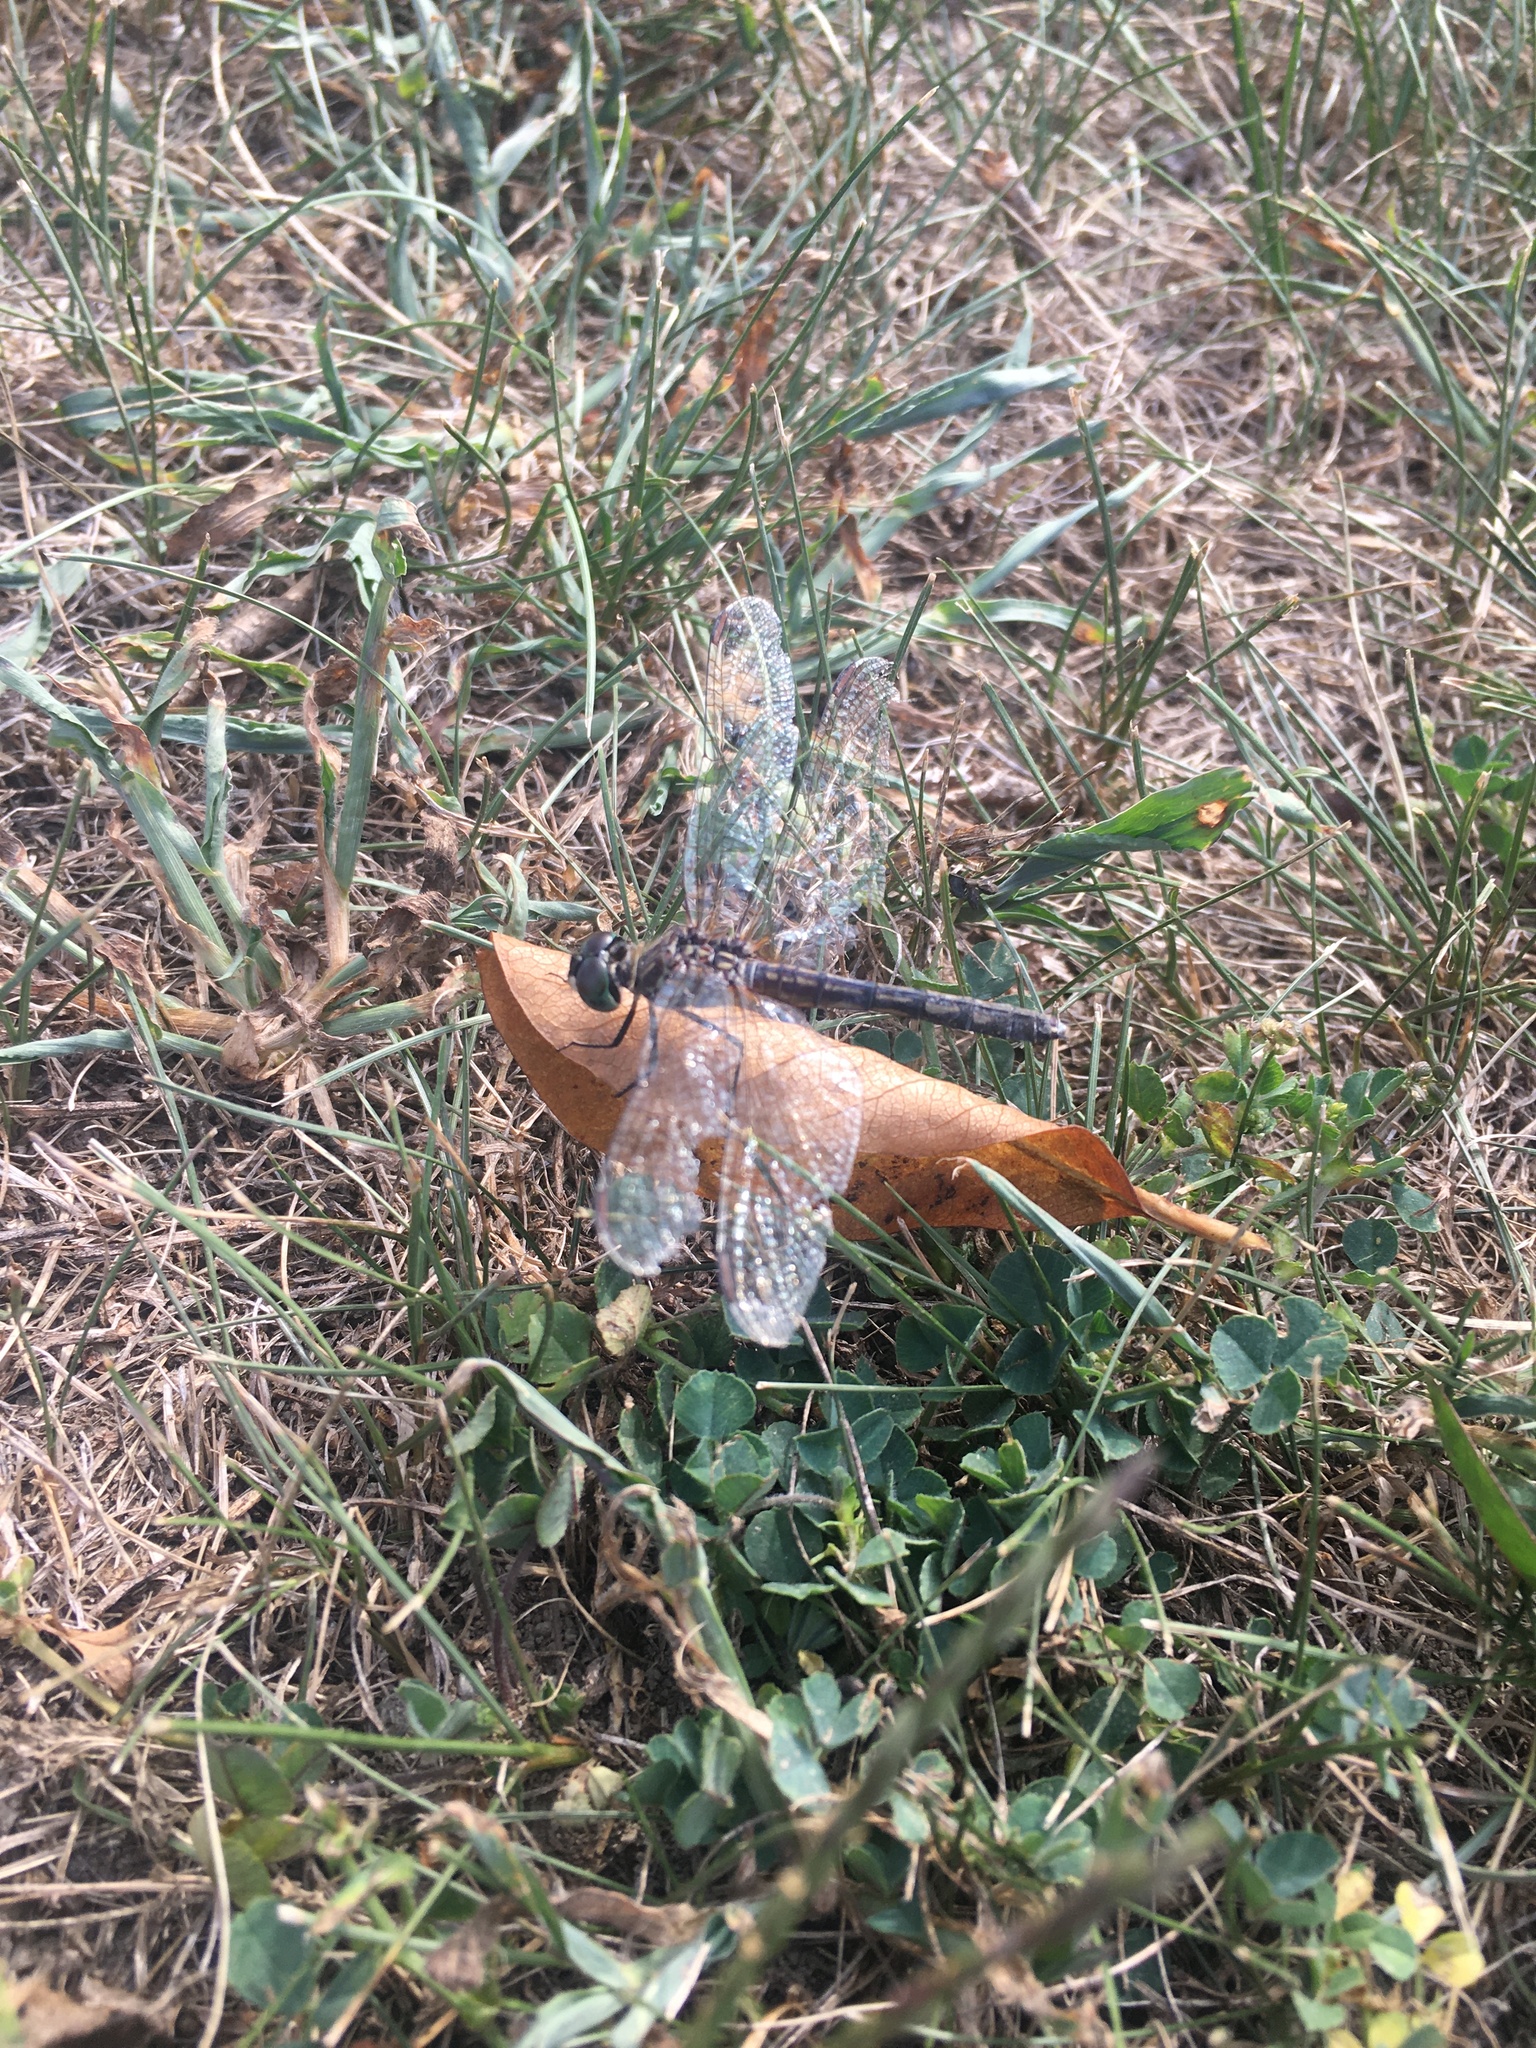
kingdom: Animalia
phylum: Arthropoda
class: Insecta
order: Odonata
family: Libellulidae
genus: Pachydiplax
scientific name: Pachydiplax longipennis
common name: Blue dasher
